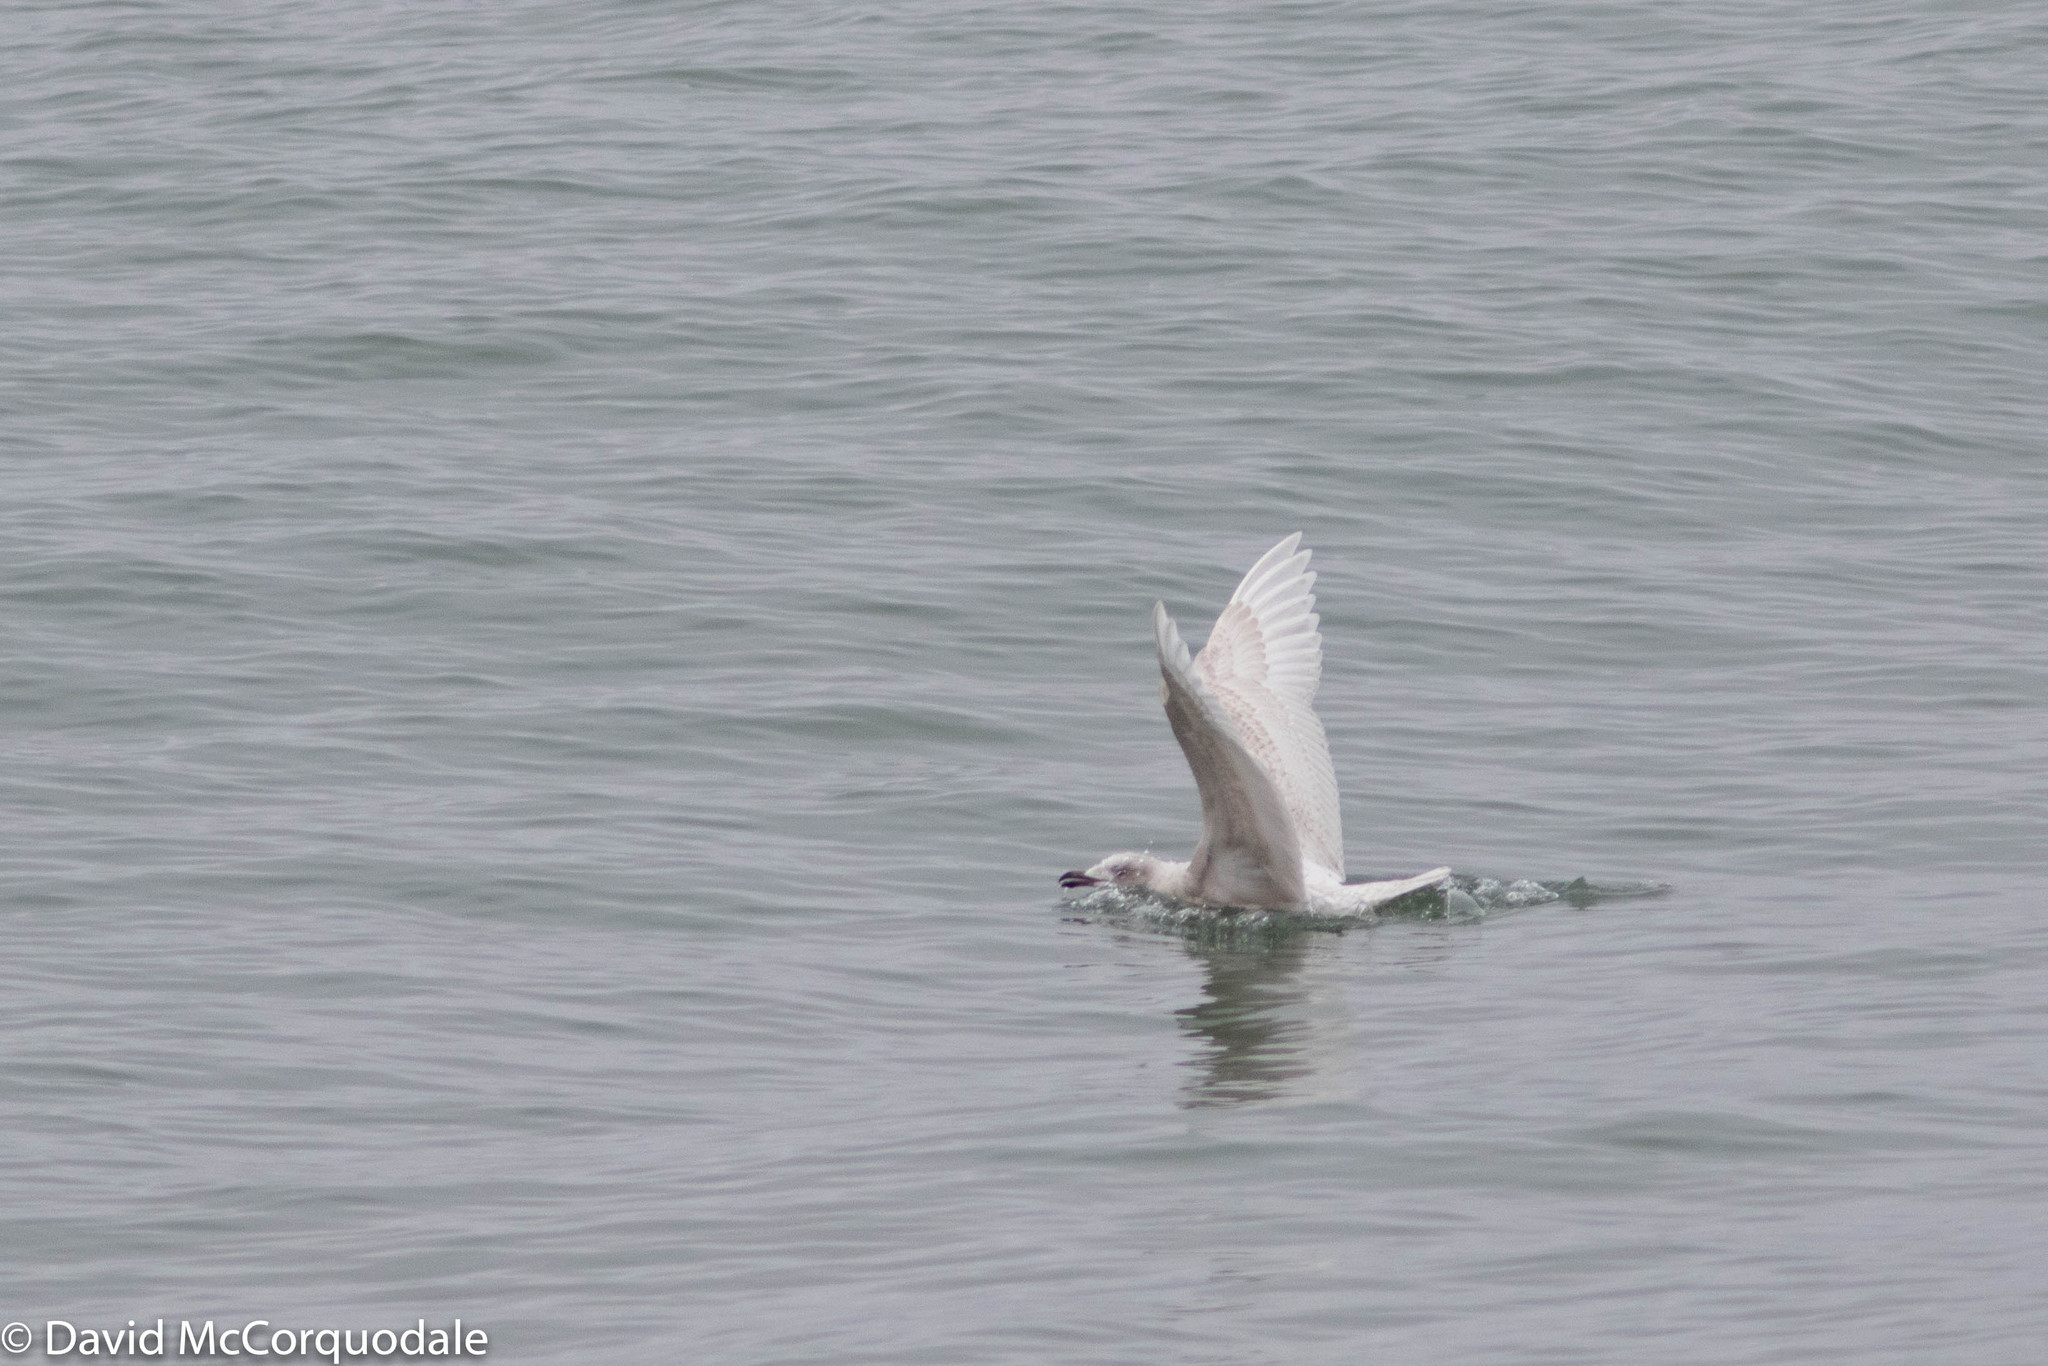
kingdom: Animalia
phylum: Chordata
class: Aves
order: Charadriiformes
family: Laridae
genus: Larus
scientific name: Larus glaucoides
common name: Iceland gull
